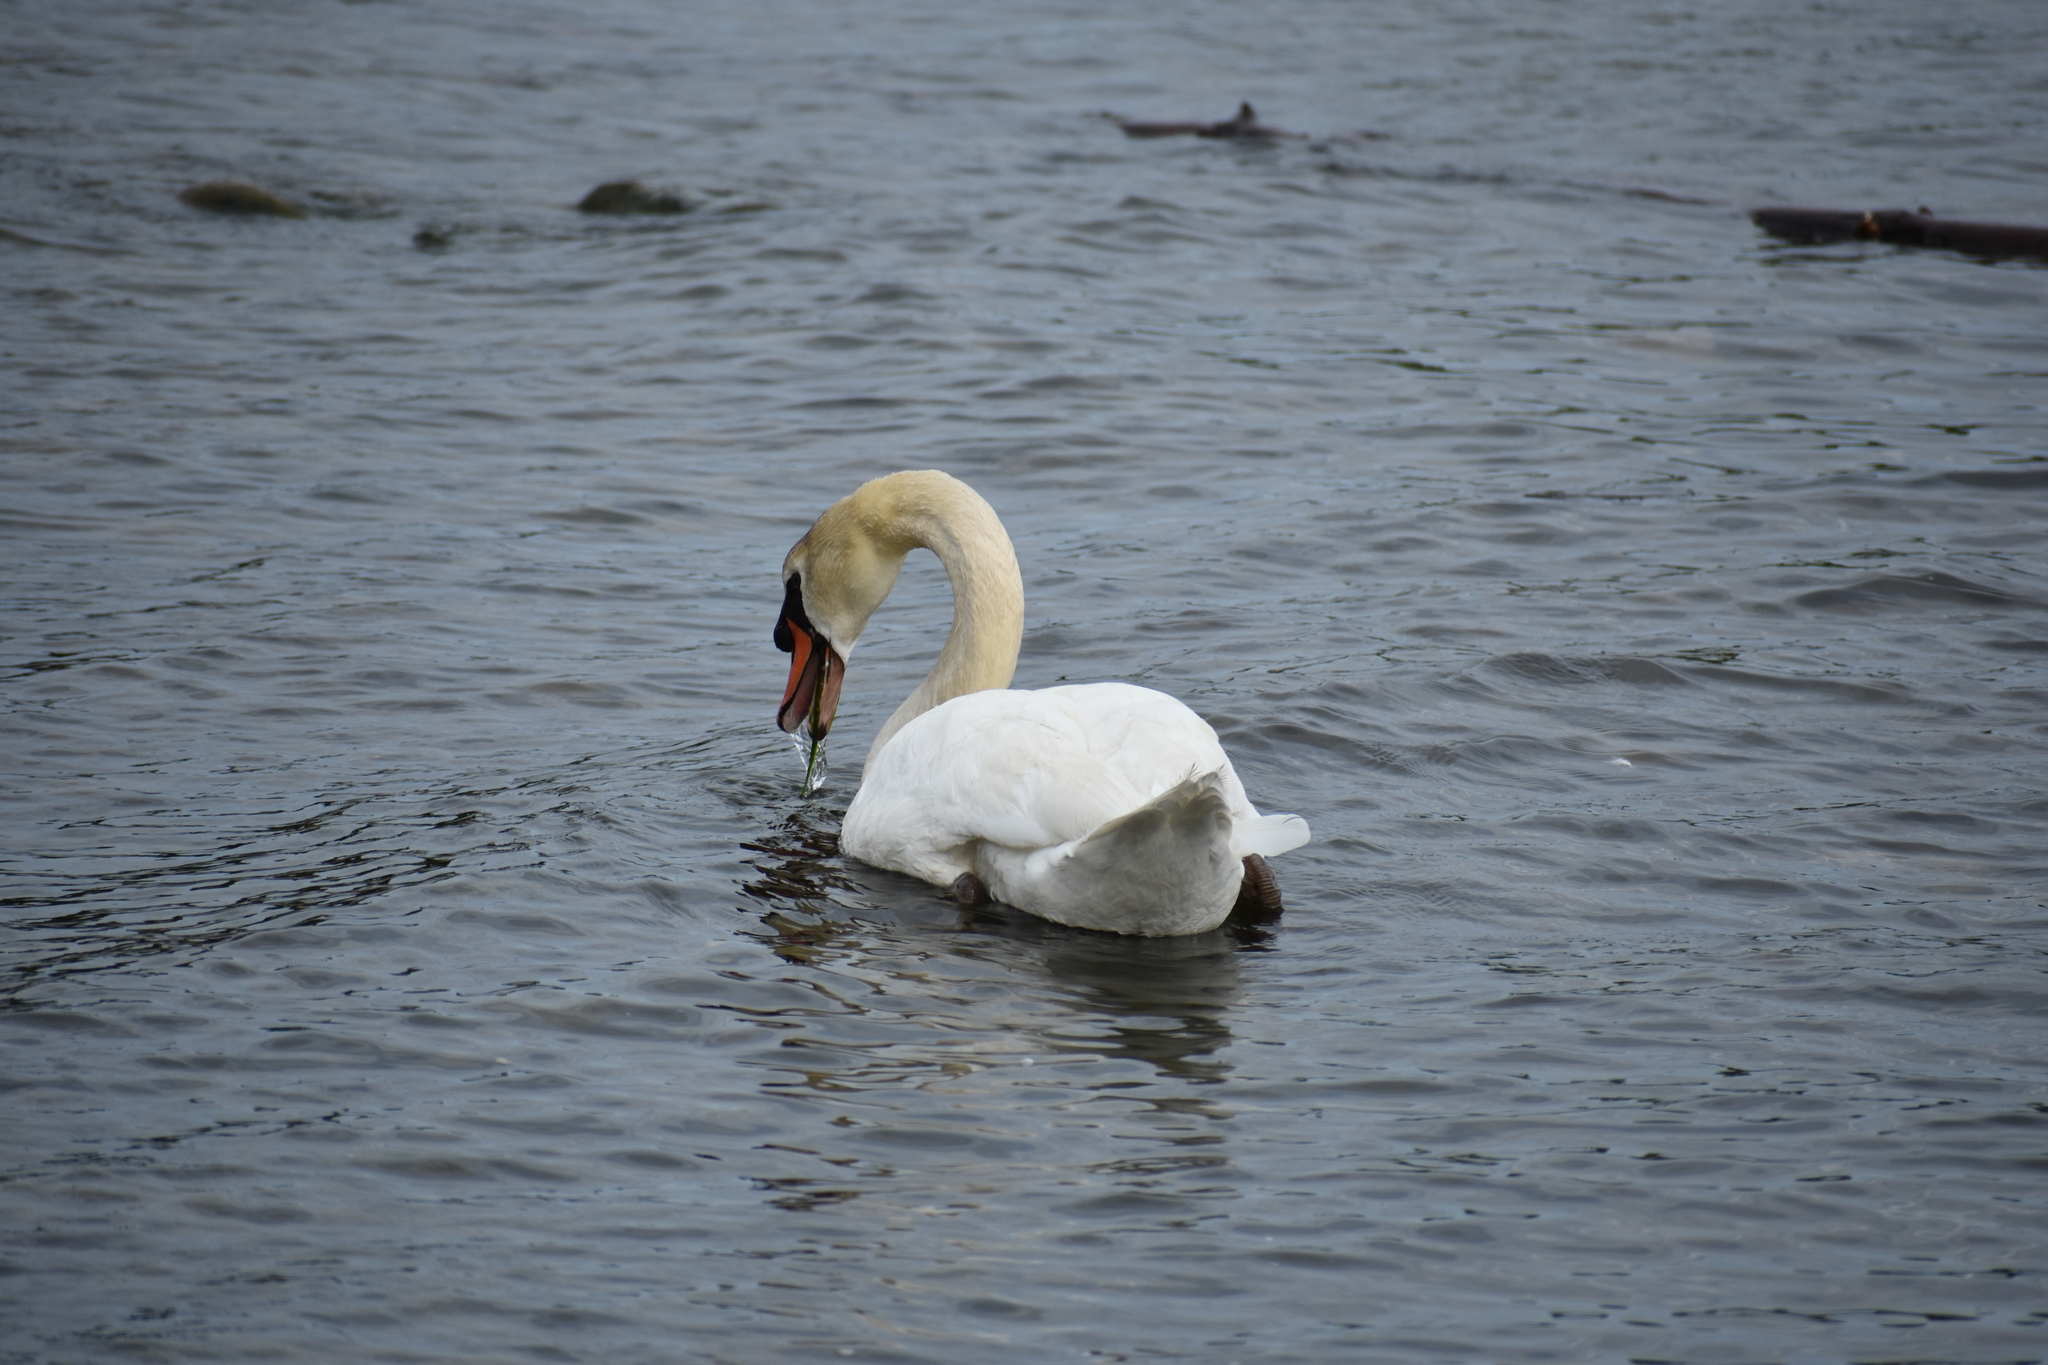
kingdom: Animalia
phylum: Chordata
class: Aves
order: Anseriformes
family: Anatidae
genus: Cygnus
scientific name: Cygnus olor
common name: Mute swan
